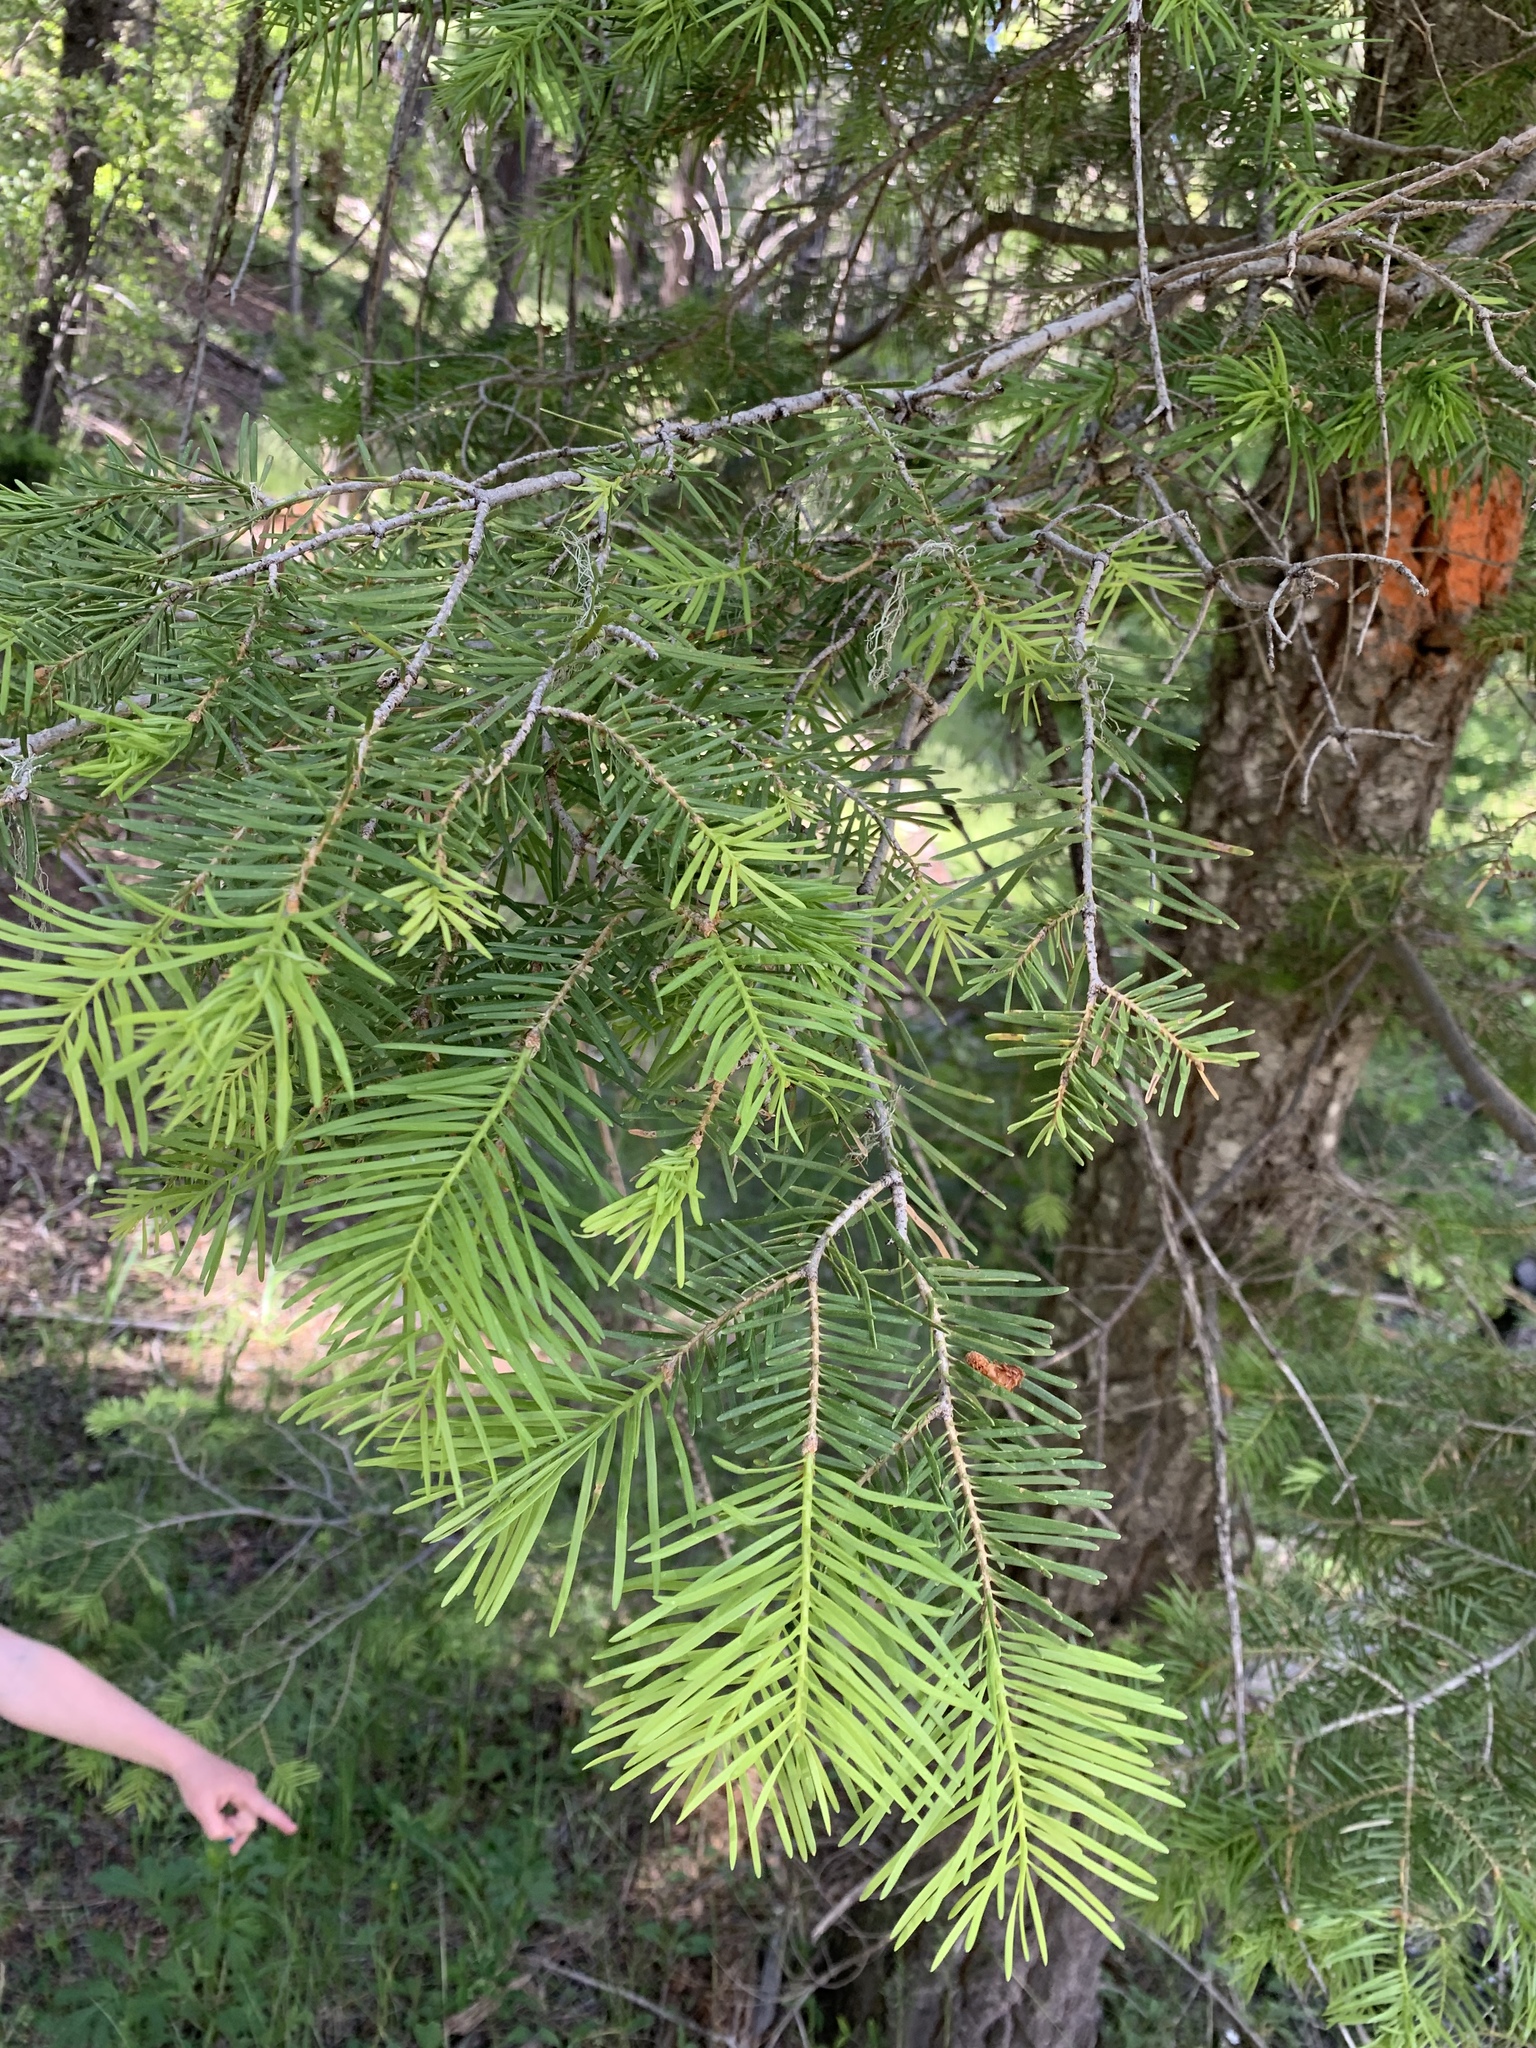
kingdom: Plantae
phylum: Tracheophyta
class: Pinopsida
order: Pinales
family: Pinaceae
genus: Abies
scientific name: Abies concolor
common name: Colorado fir
